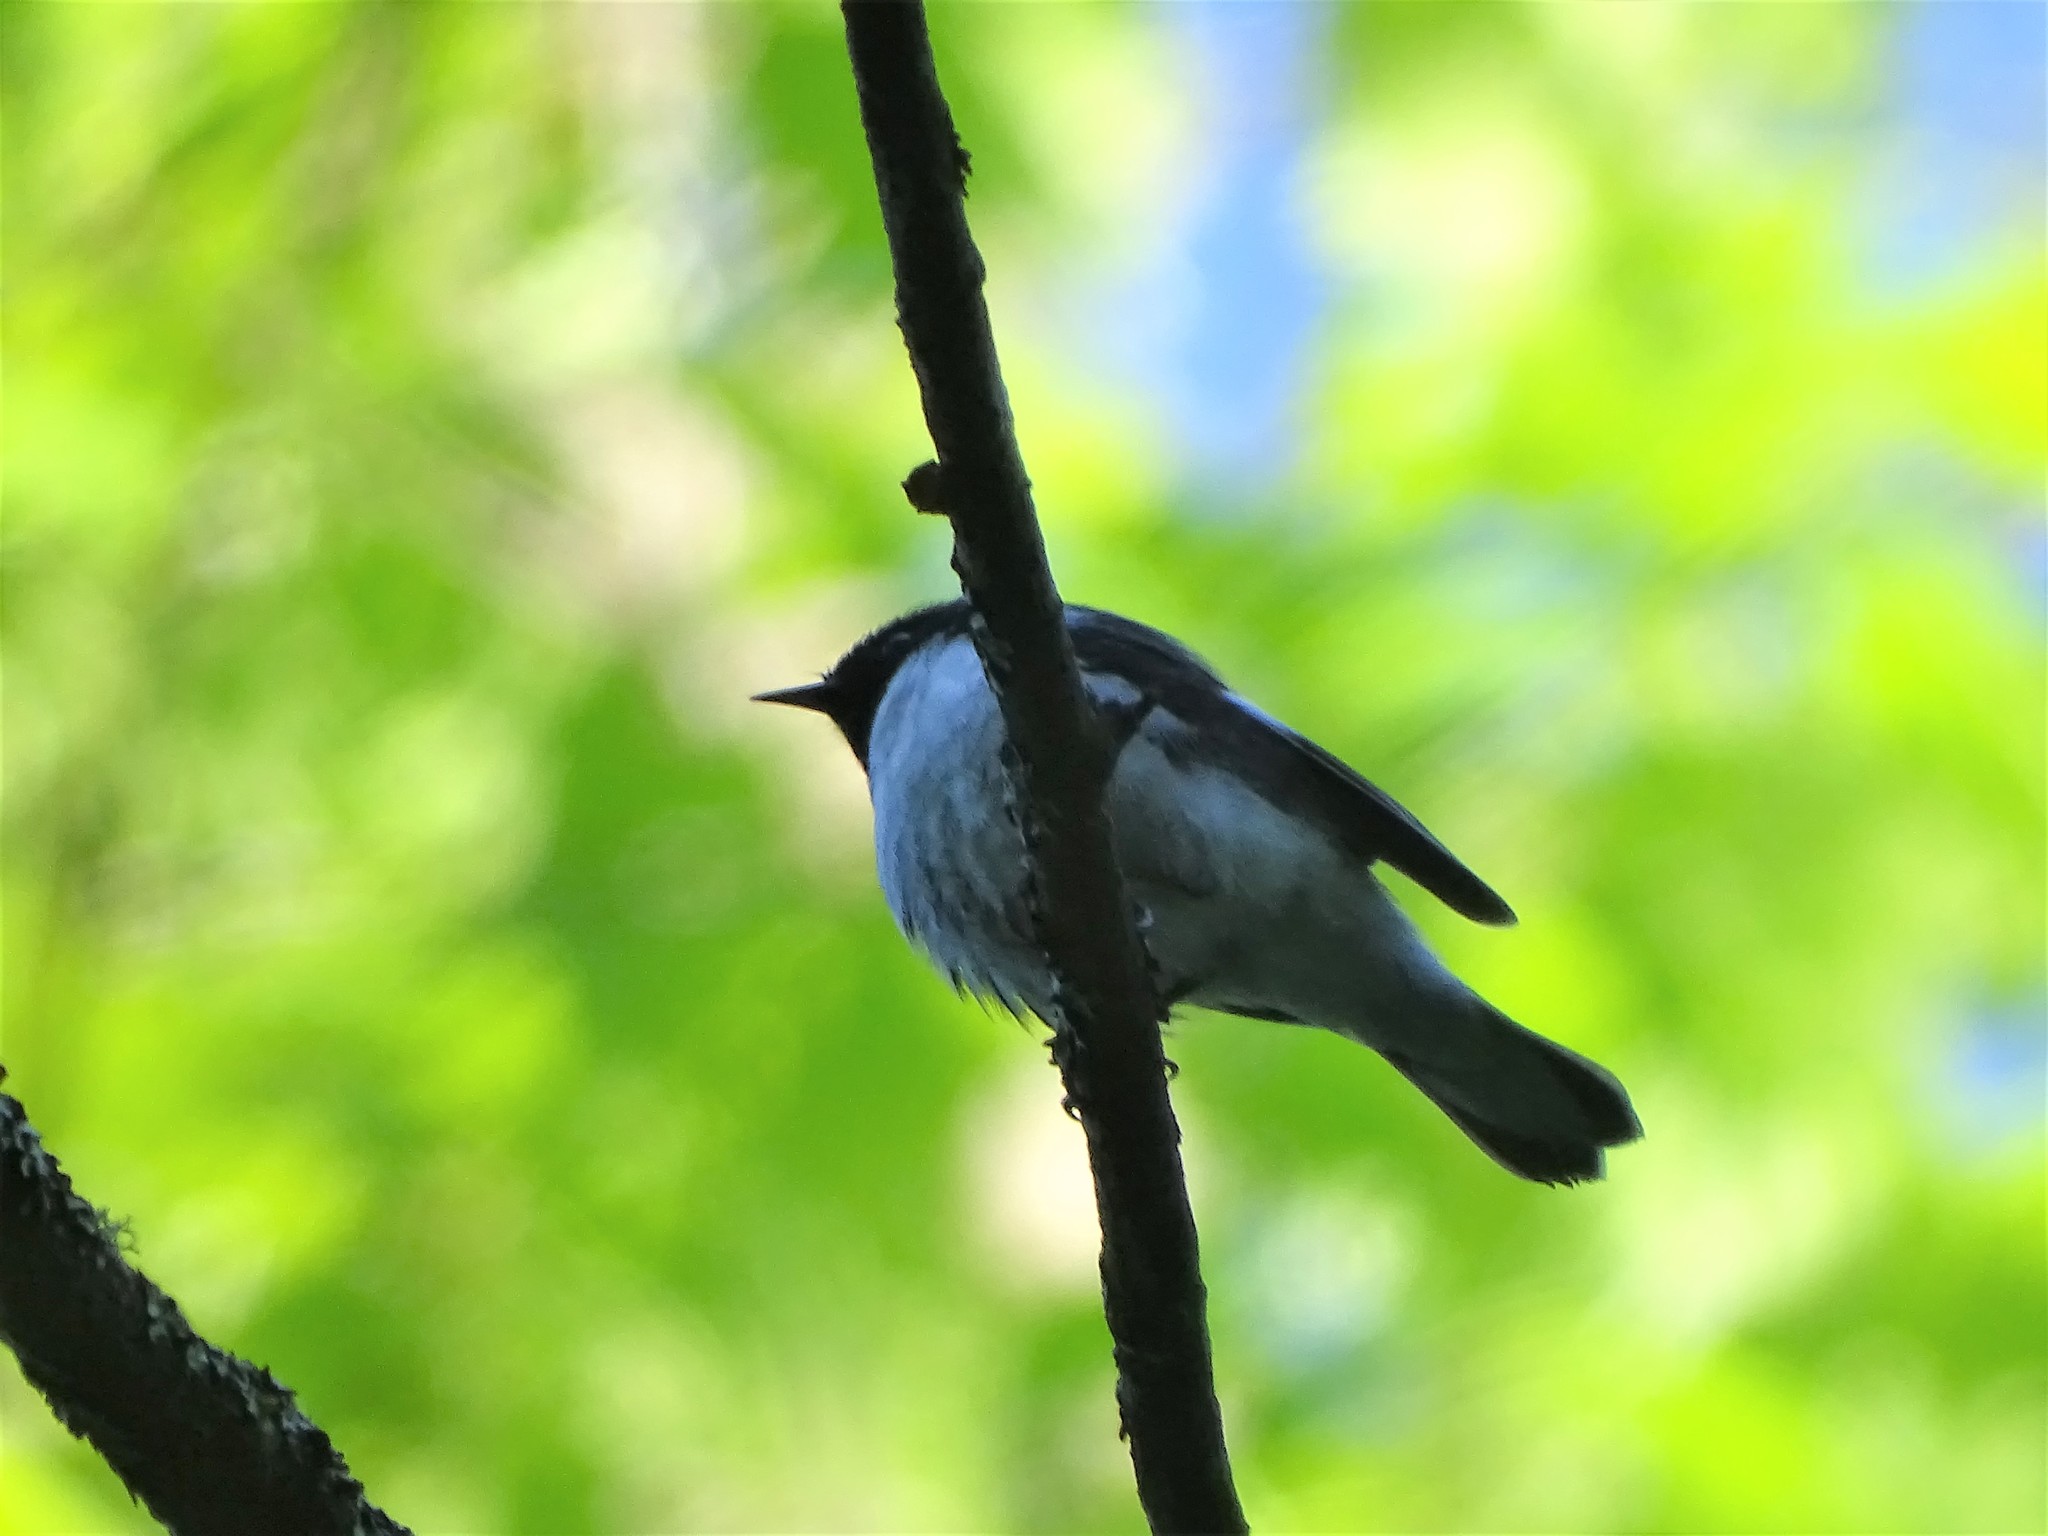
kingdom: Animalia
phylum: Chordata
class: Aves
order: Passeriformes
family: Parulidae
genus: Setophaga
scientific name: Setophaga caerulescens
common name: Black-throated blue warbler
